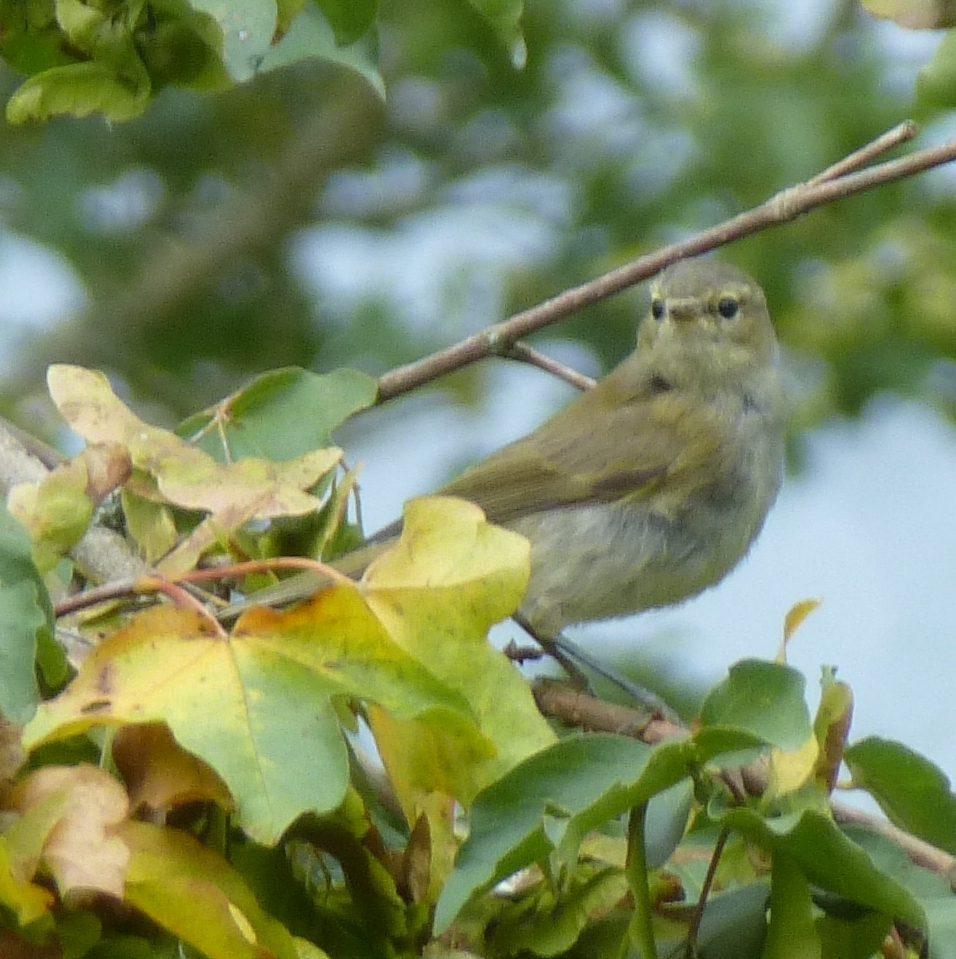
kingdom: Animalia
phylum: Chordata
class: Aves
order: Passeriformes
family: Phylloscopidae
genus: Phylloscopus
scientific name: Phylloscopus collybita
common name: Common chiffchaff
